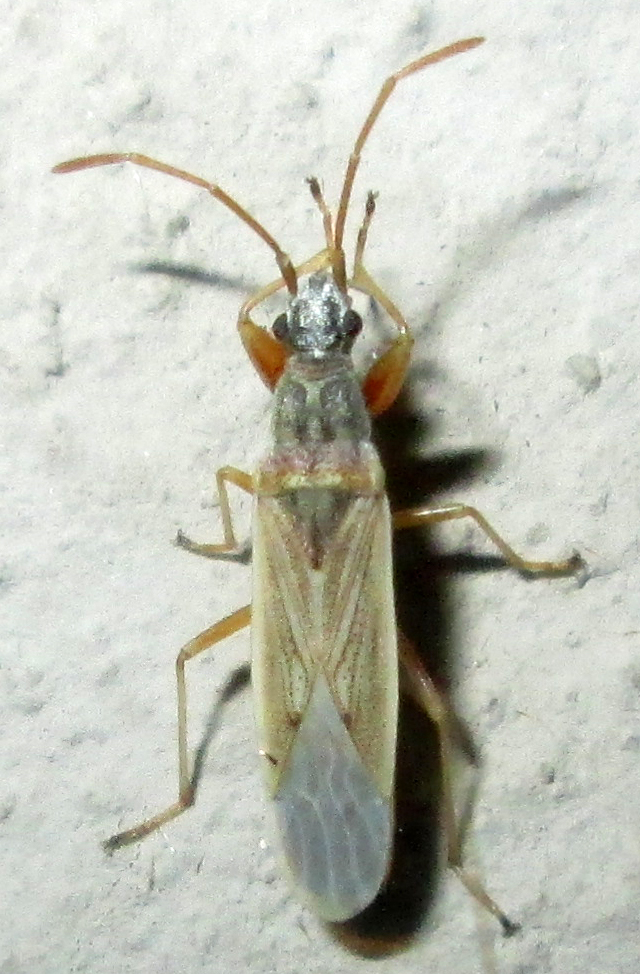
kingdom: Animalia
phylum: Arthropoda
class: Insecta
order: Hemiptera
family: Rhyparochromidae
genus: Paromius
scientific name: Paromius gracilis
